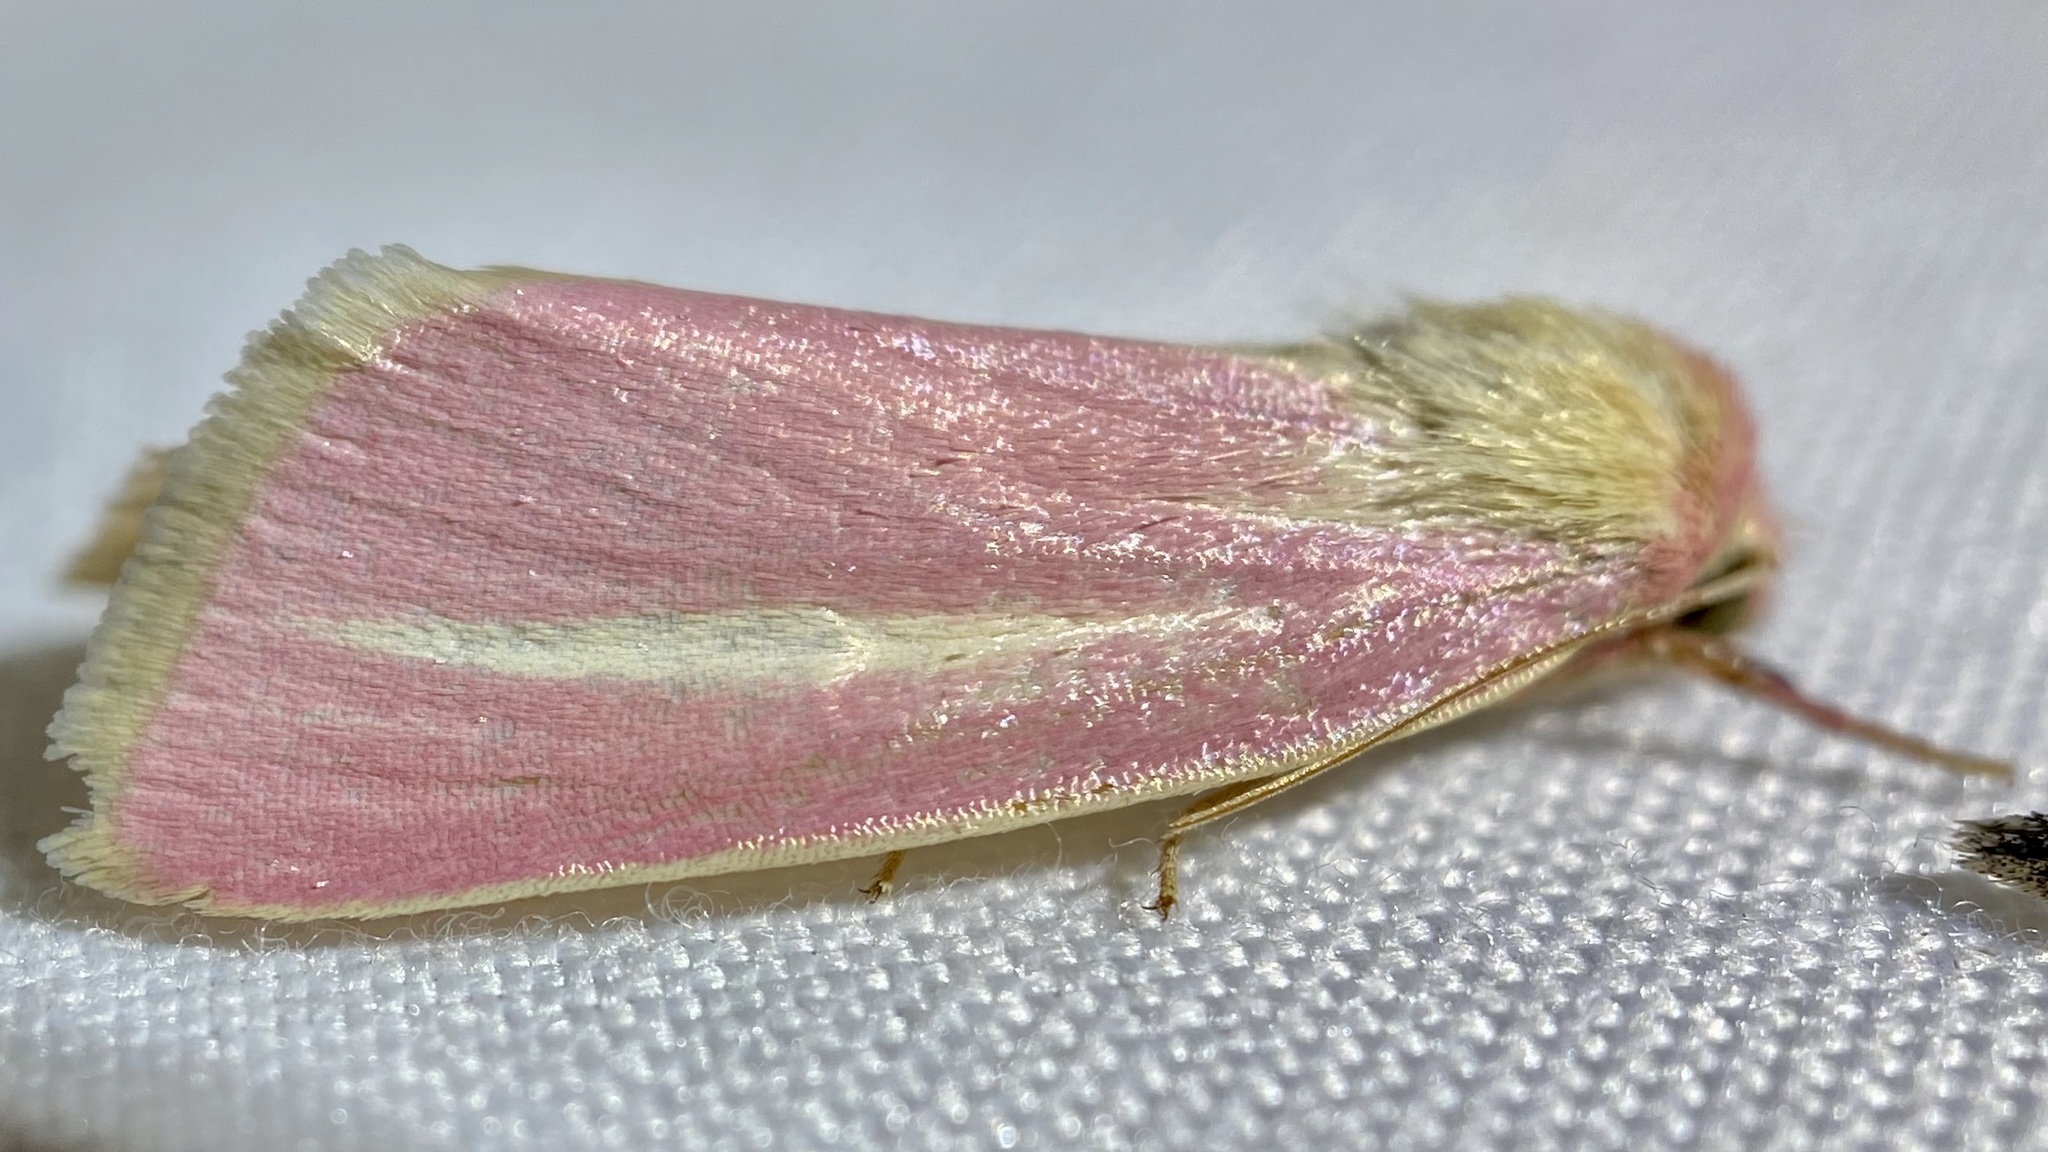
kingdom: Animalia
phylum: Arthropoda
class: Insecta
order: Lepidoptera
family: Noctuidae
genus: Heliocheilus
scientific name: Heliocheilus julia
